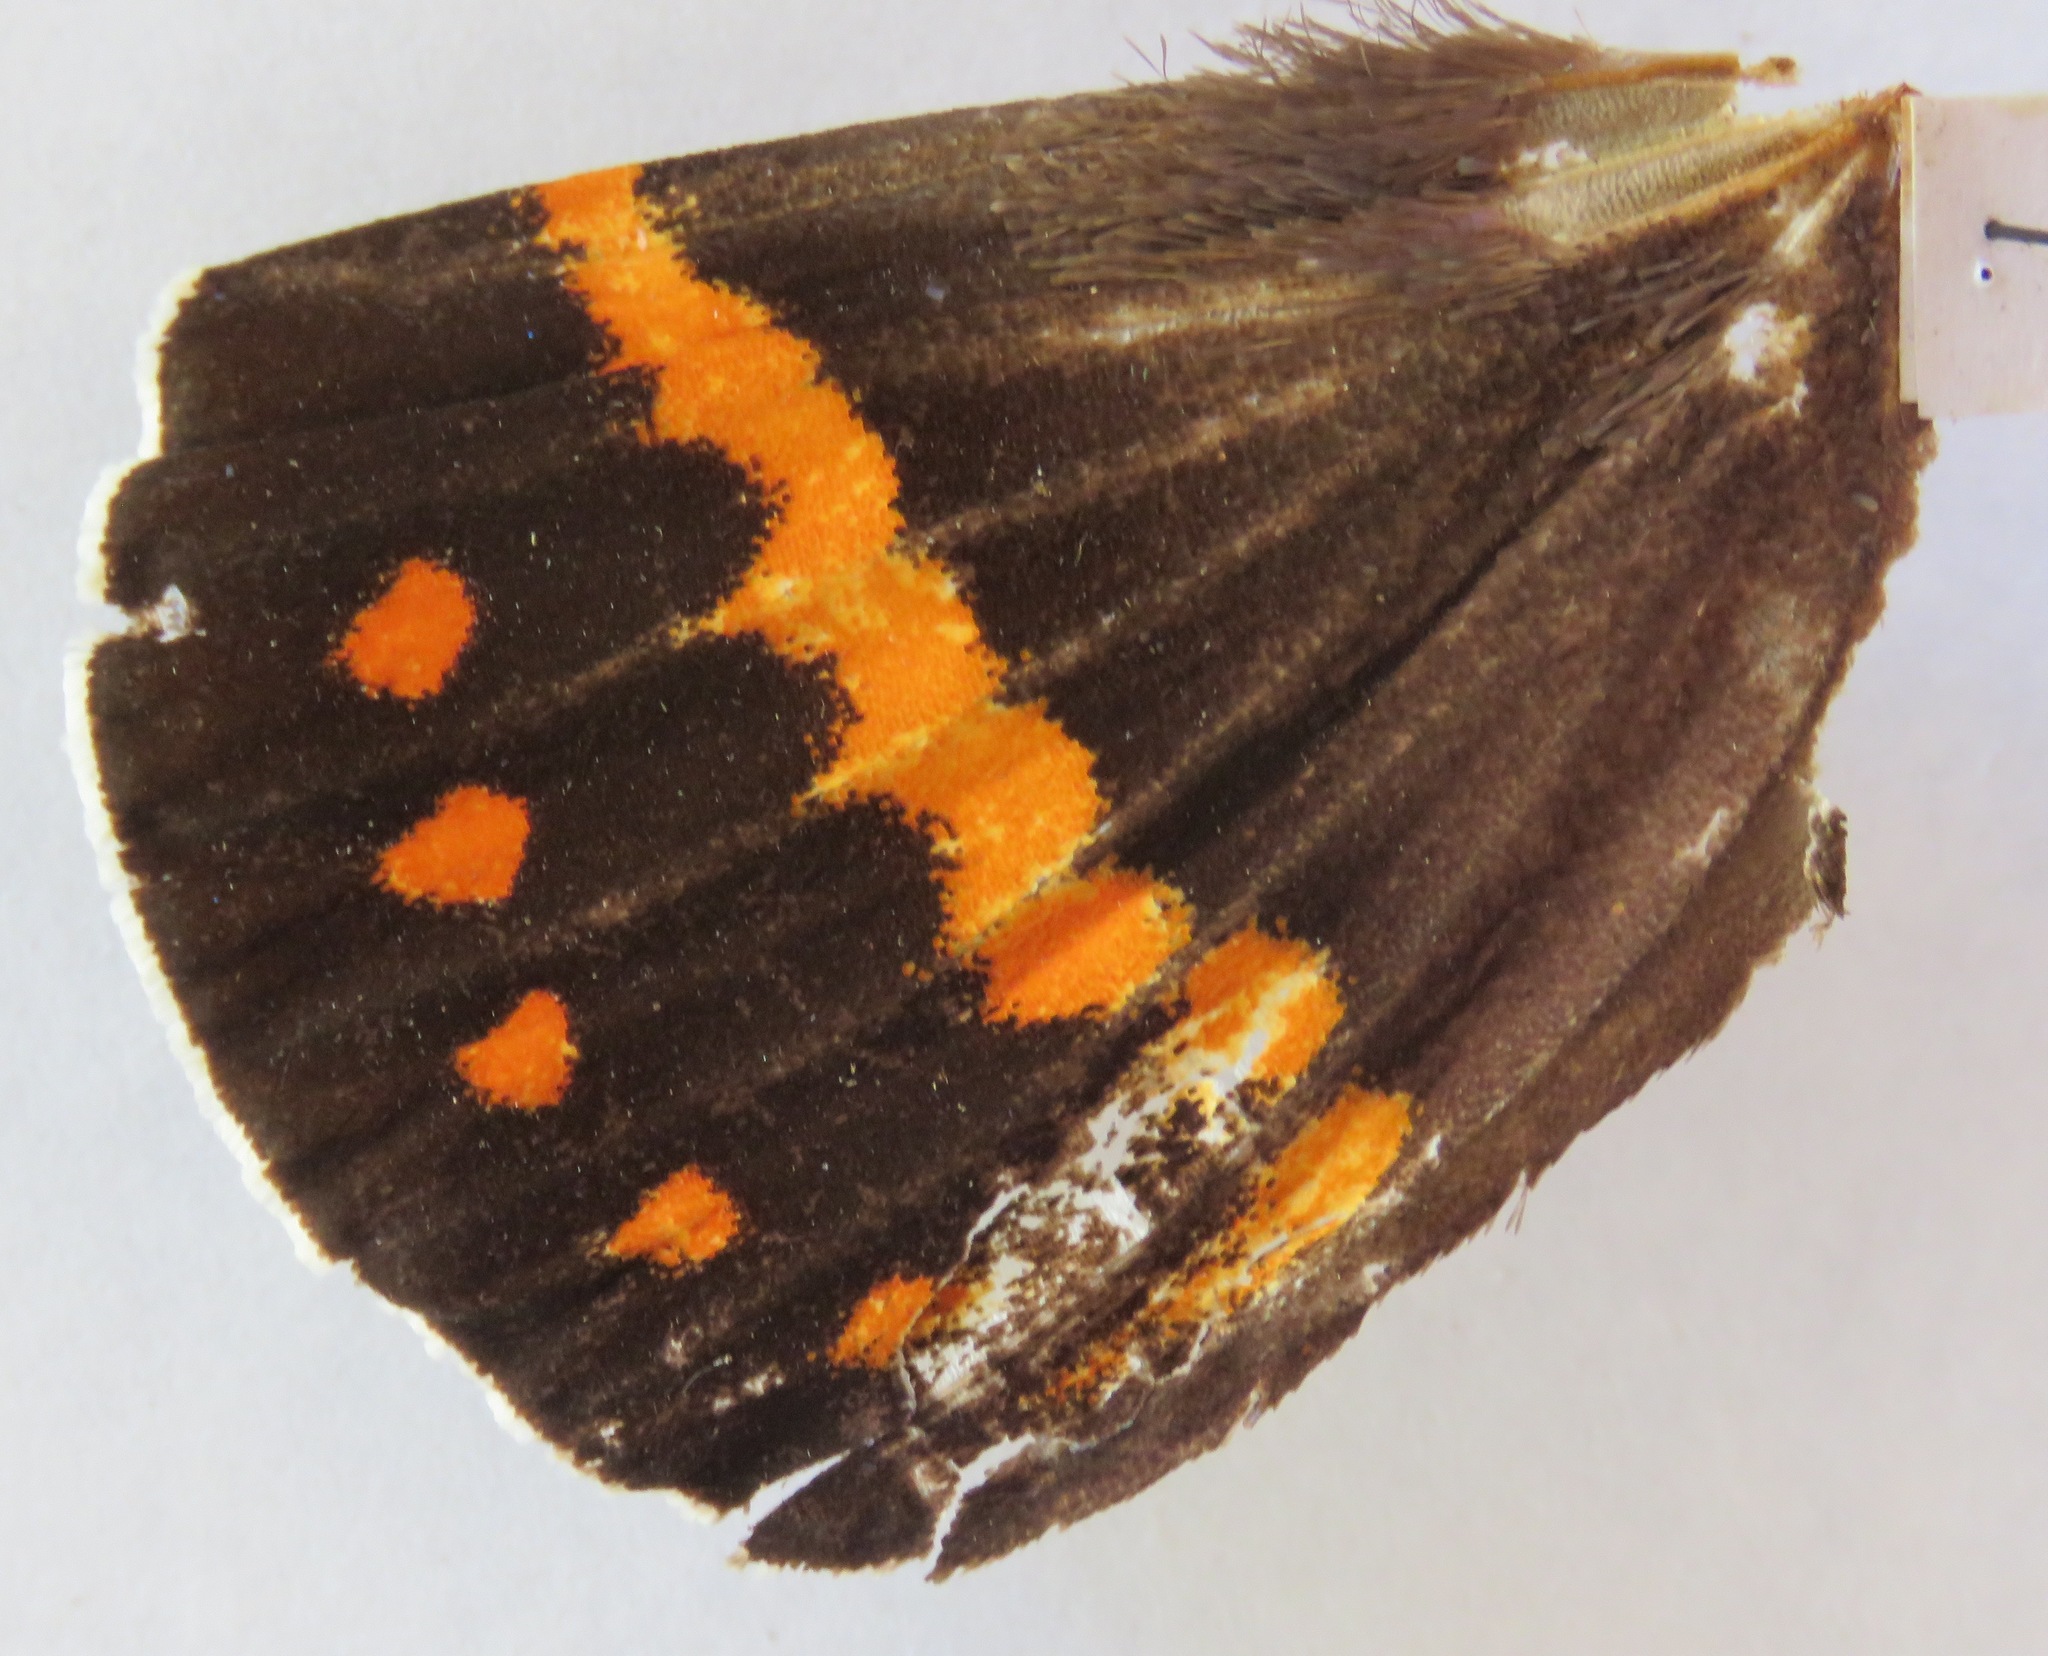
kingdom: Animalia
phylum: Arthropoda
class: Insecta
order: Lepidoptera
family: Castniidae
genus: Amauta
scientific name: Amauta procera
